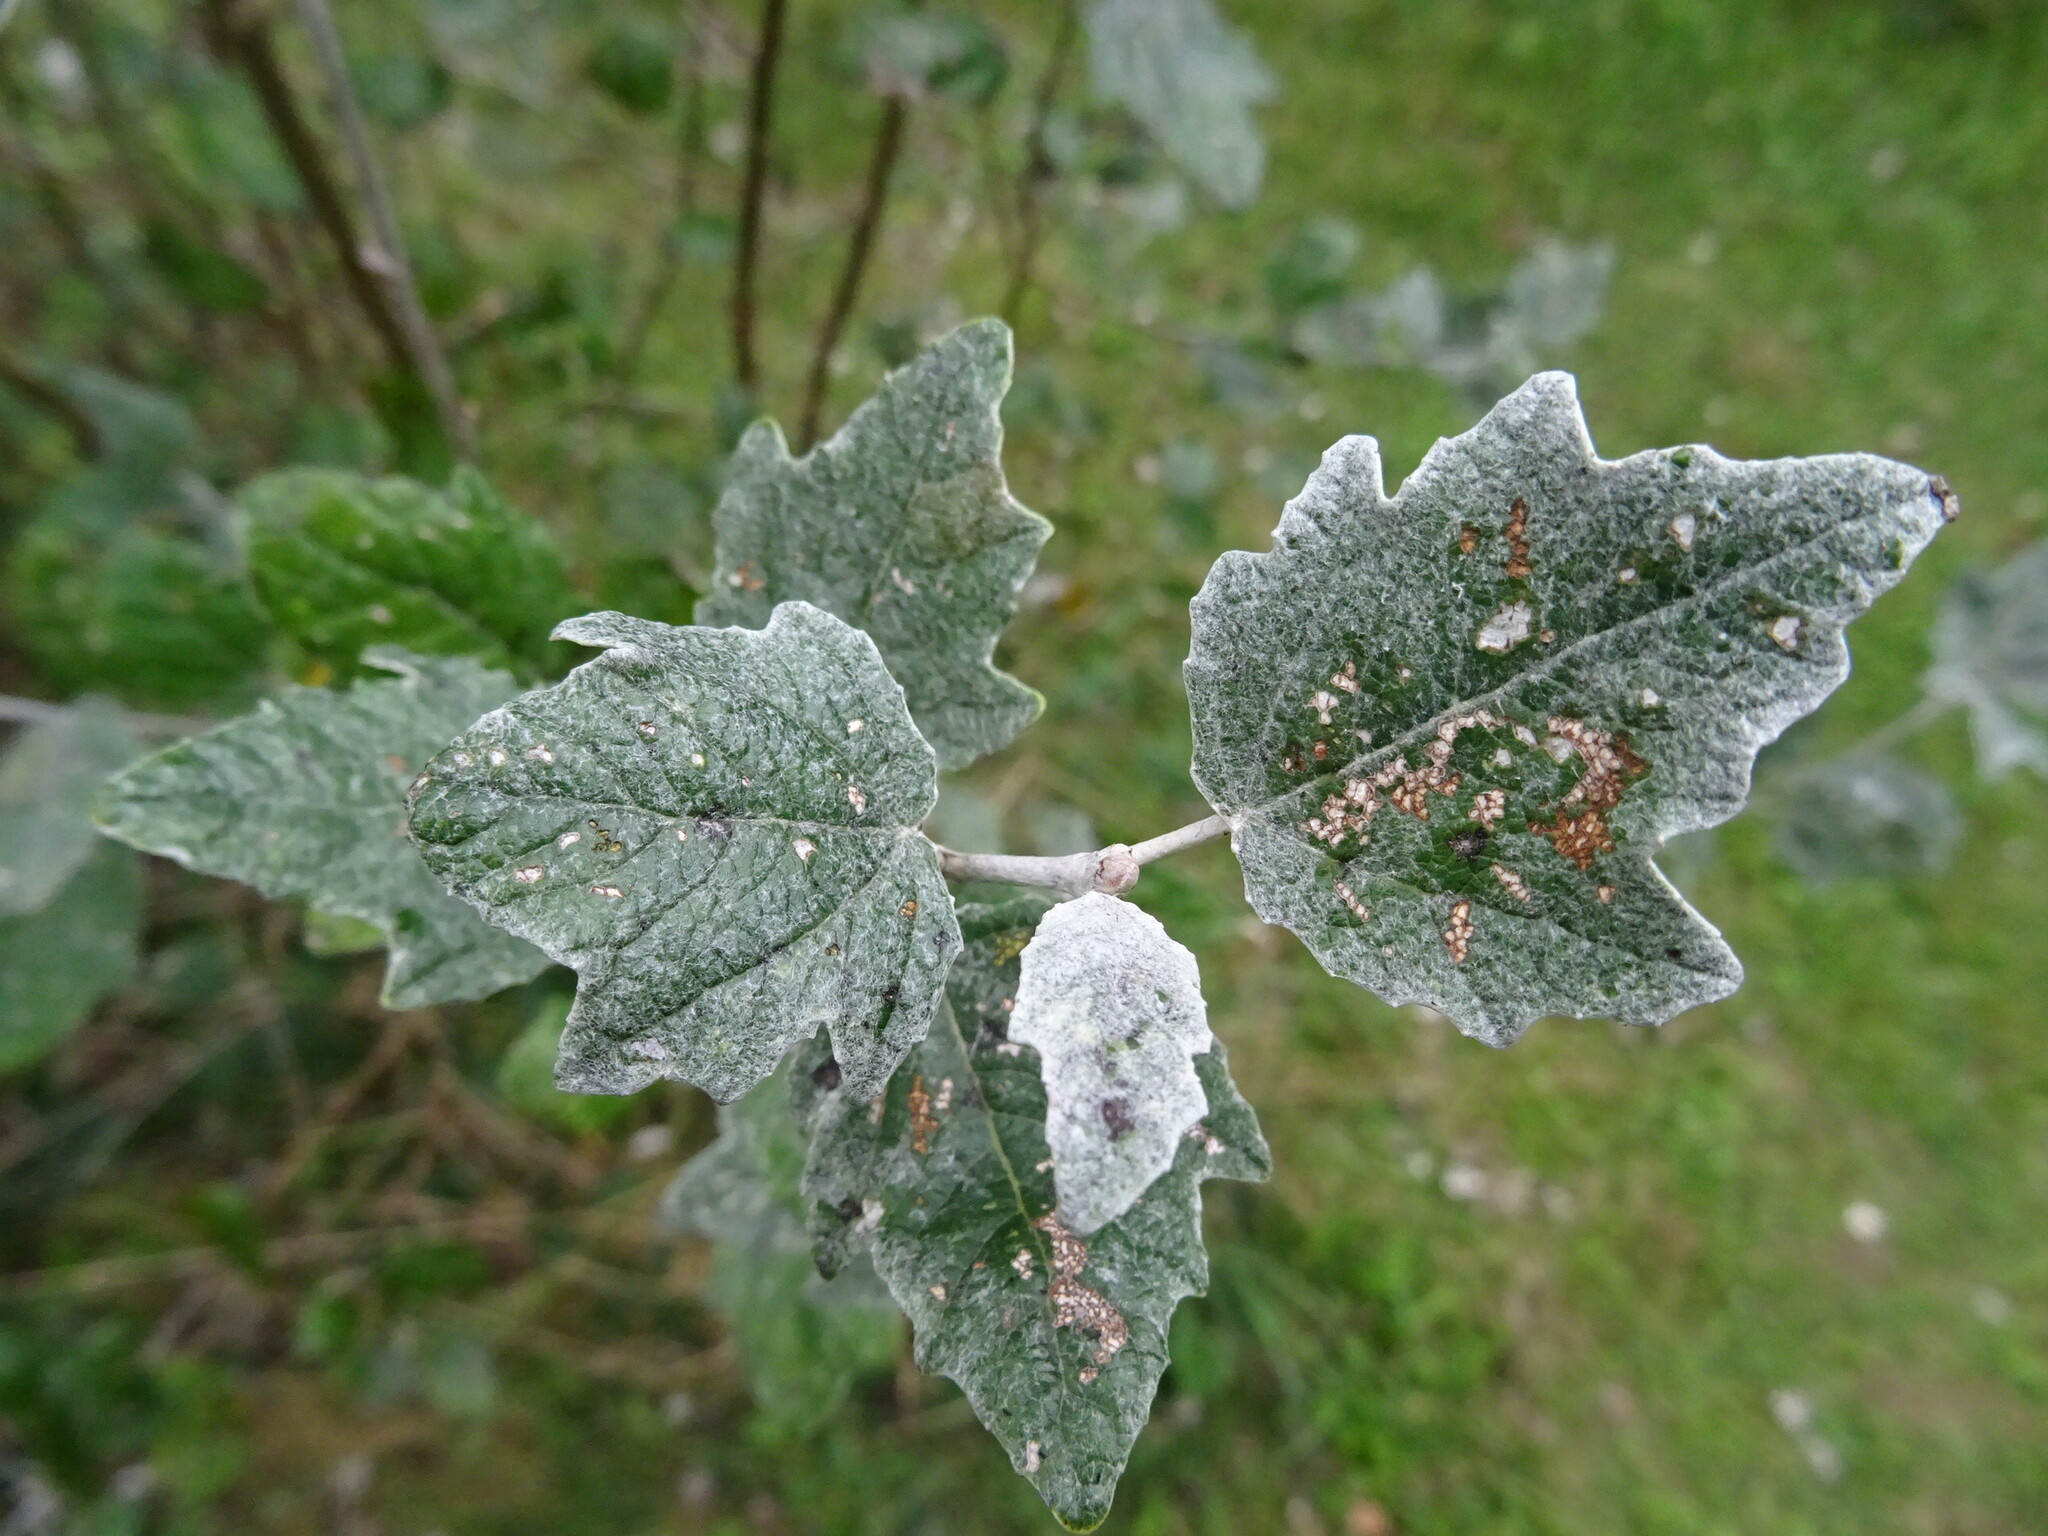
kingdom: Plantae
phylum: Tracheophyta
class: Magnoliopsida
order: Malpighiales
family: Salicaceae
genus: Populus
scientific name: Populus alba
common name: White poplar
